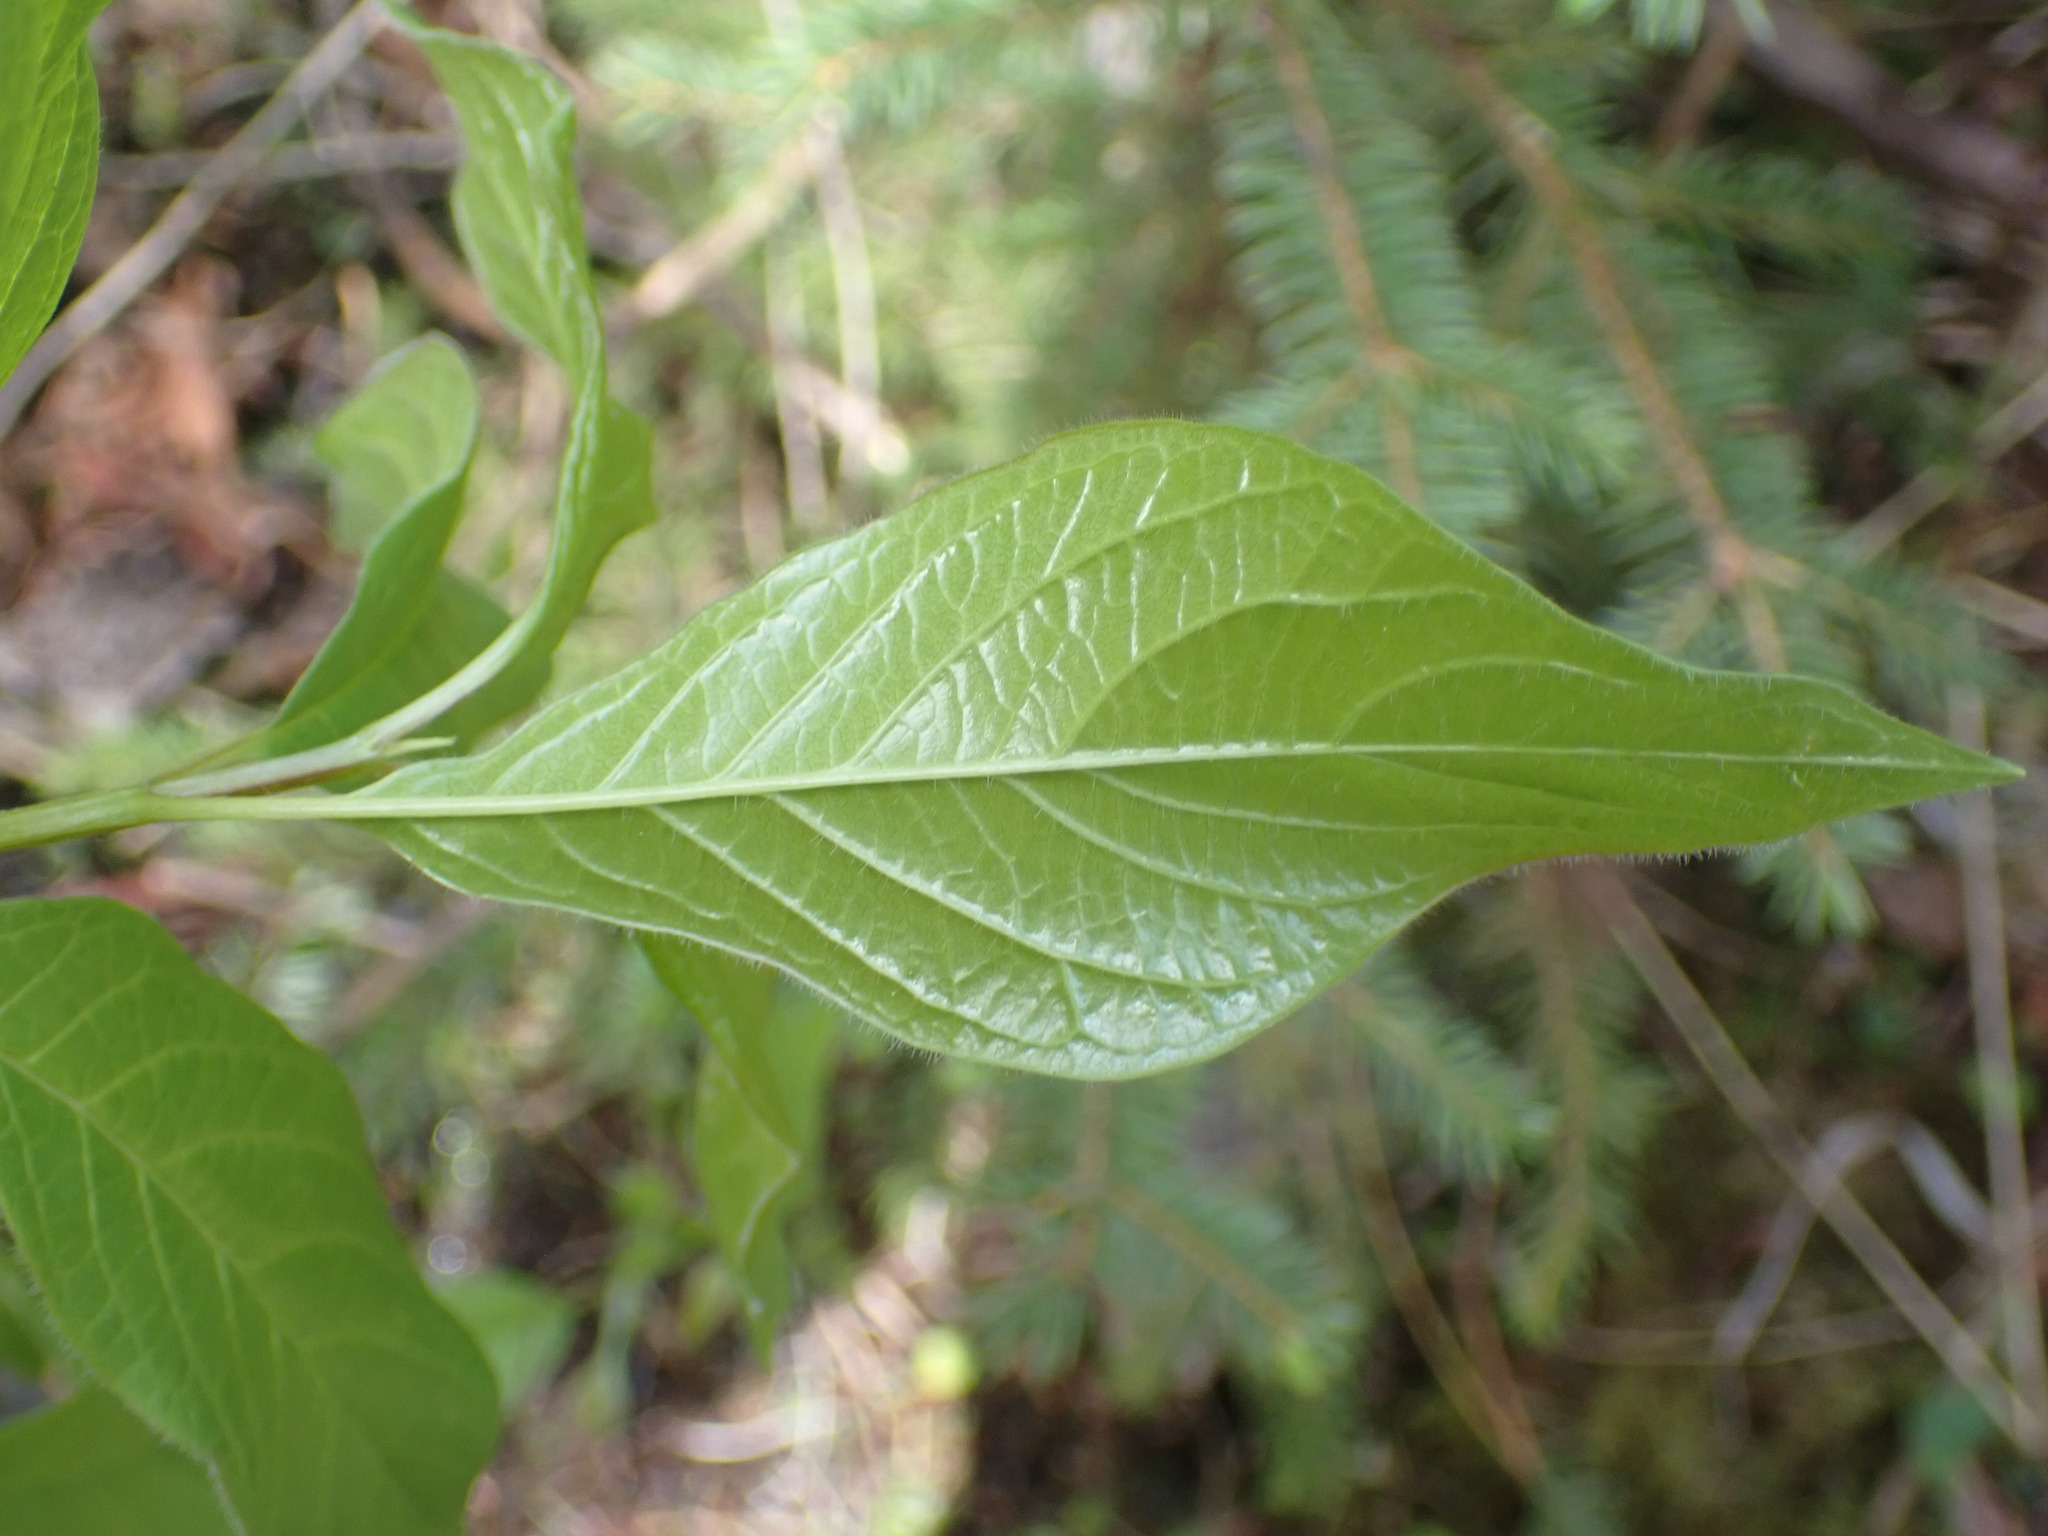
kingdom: Plantae
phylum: Tracheophyta
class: Magnoliopsida
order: Dipsacales
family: Caprifoliaceae
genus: Lonicera
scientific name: Lonicera involucrata
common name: Californian honeysuckle
